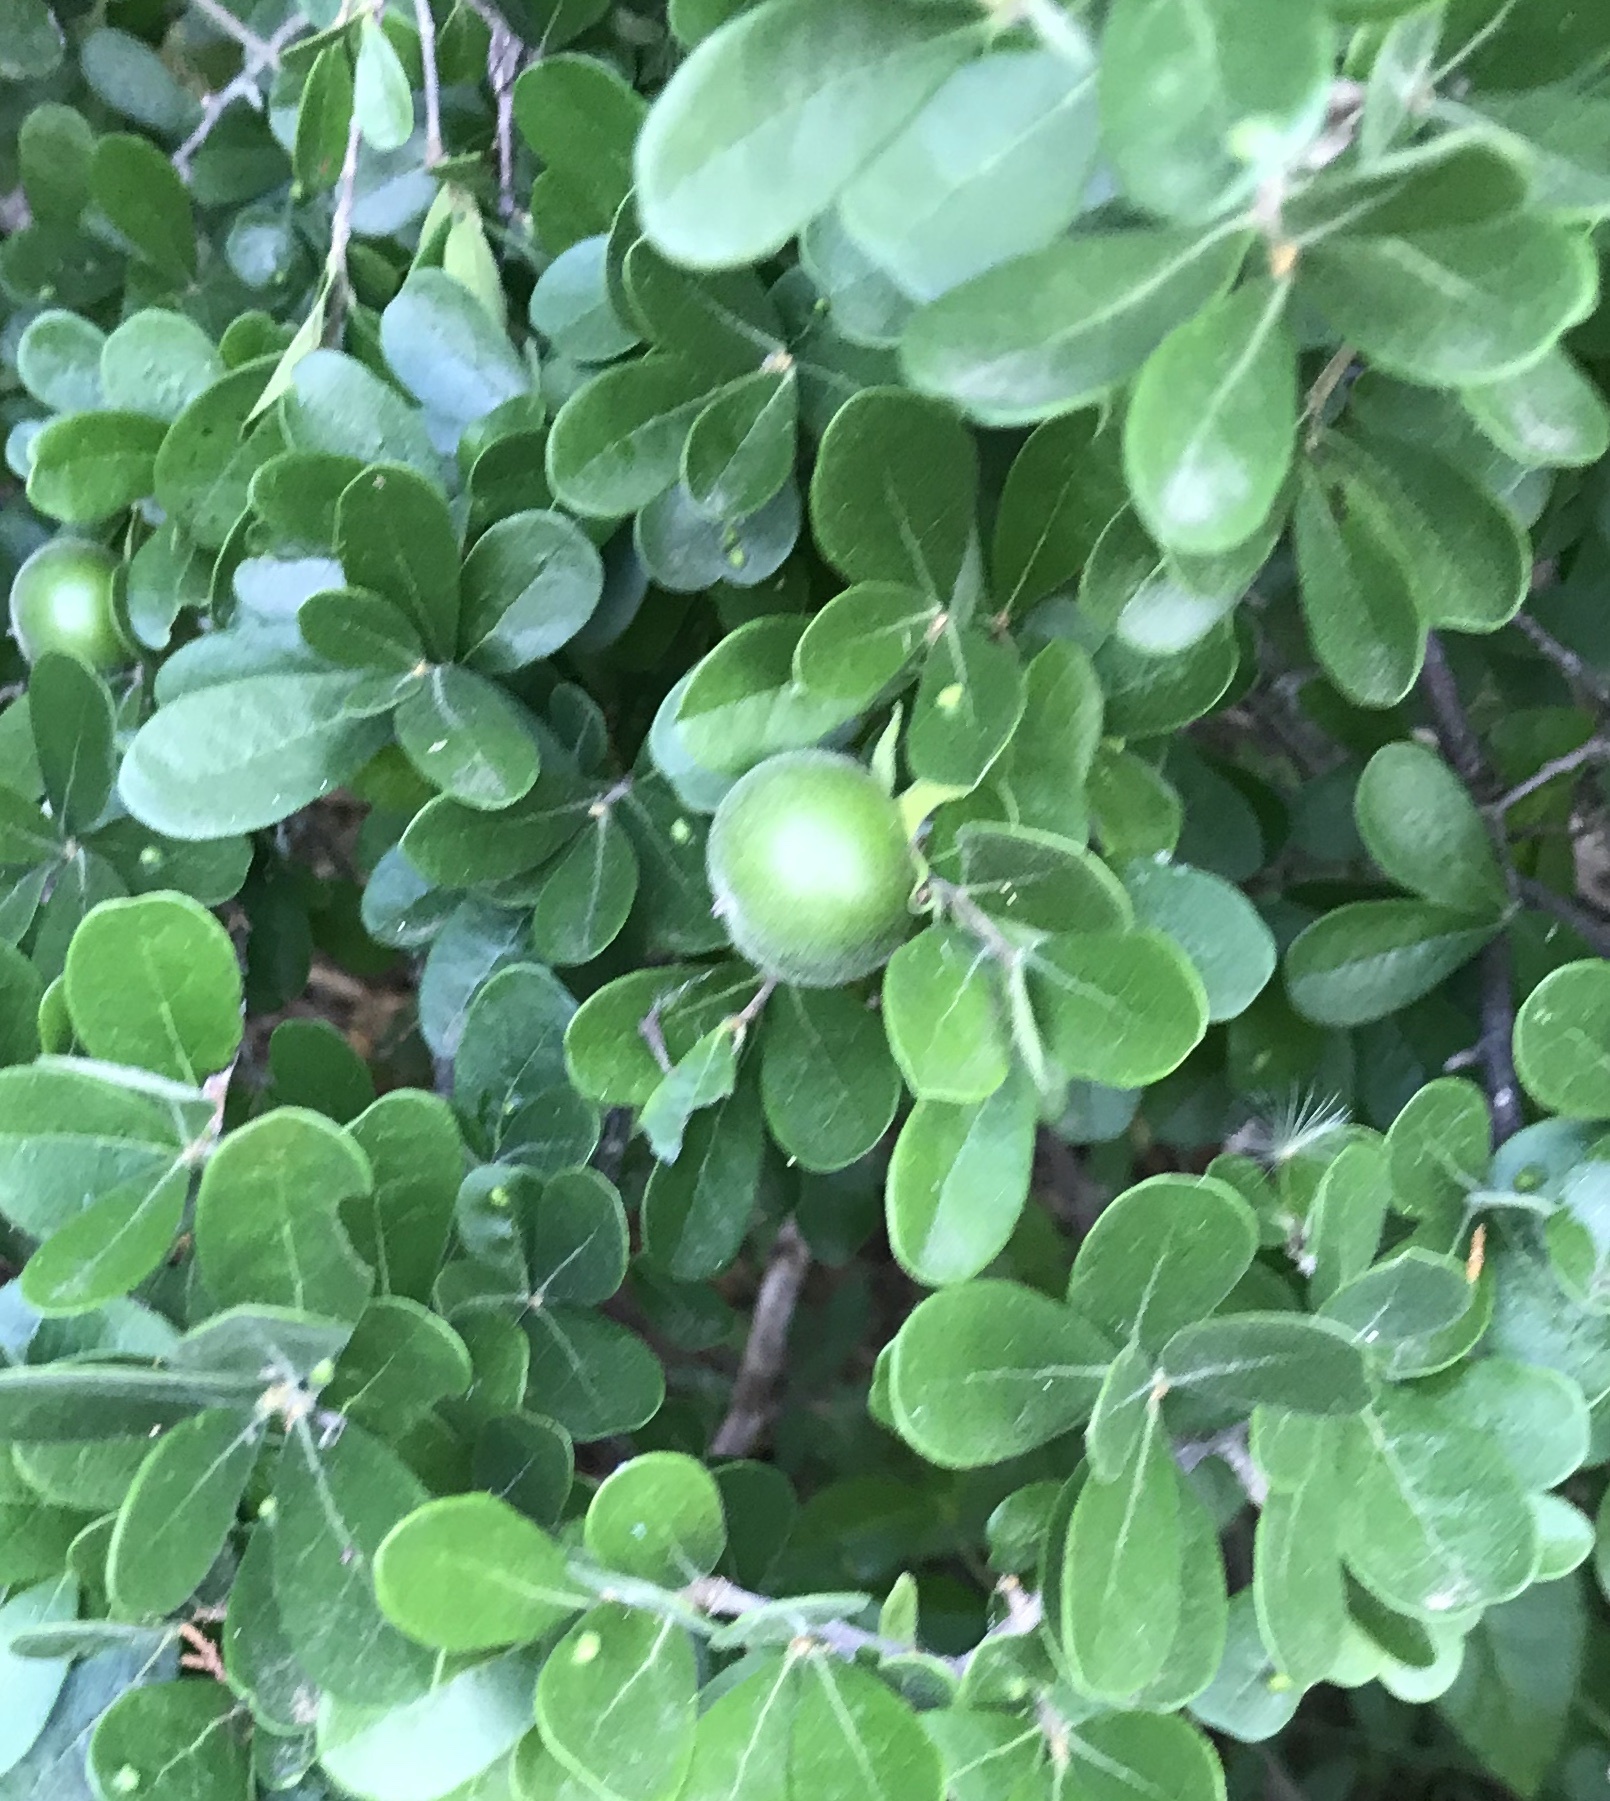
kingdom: Plantae
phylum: Tracheophyta
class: Magnoliopsida
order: Ericales
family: Ebenaceae
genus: Diospyros
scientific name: Diospyros texana
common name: Texas persimmon
